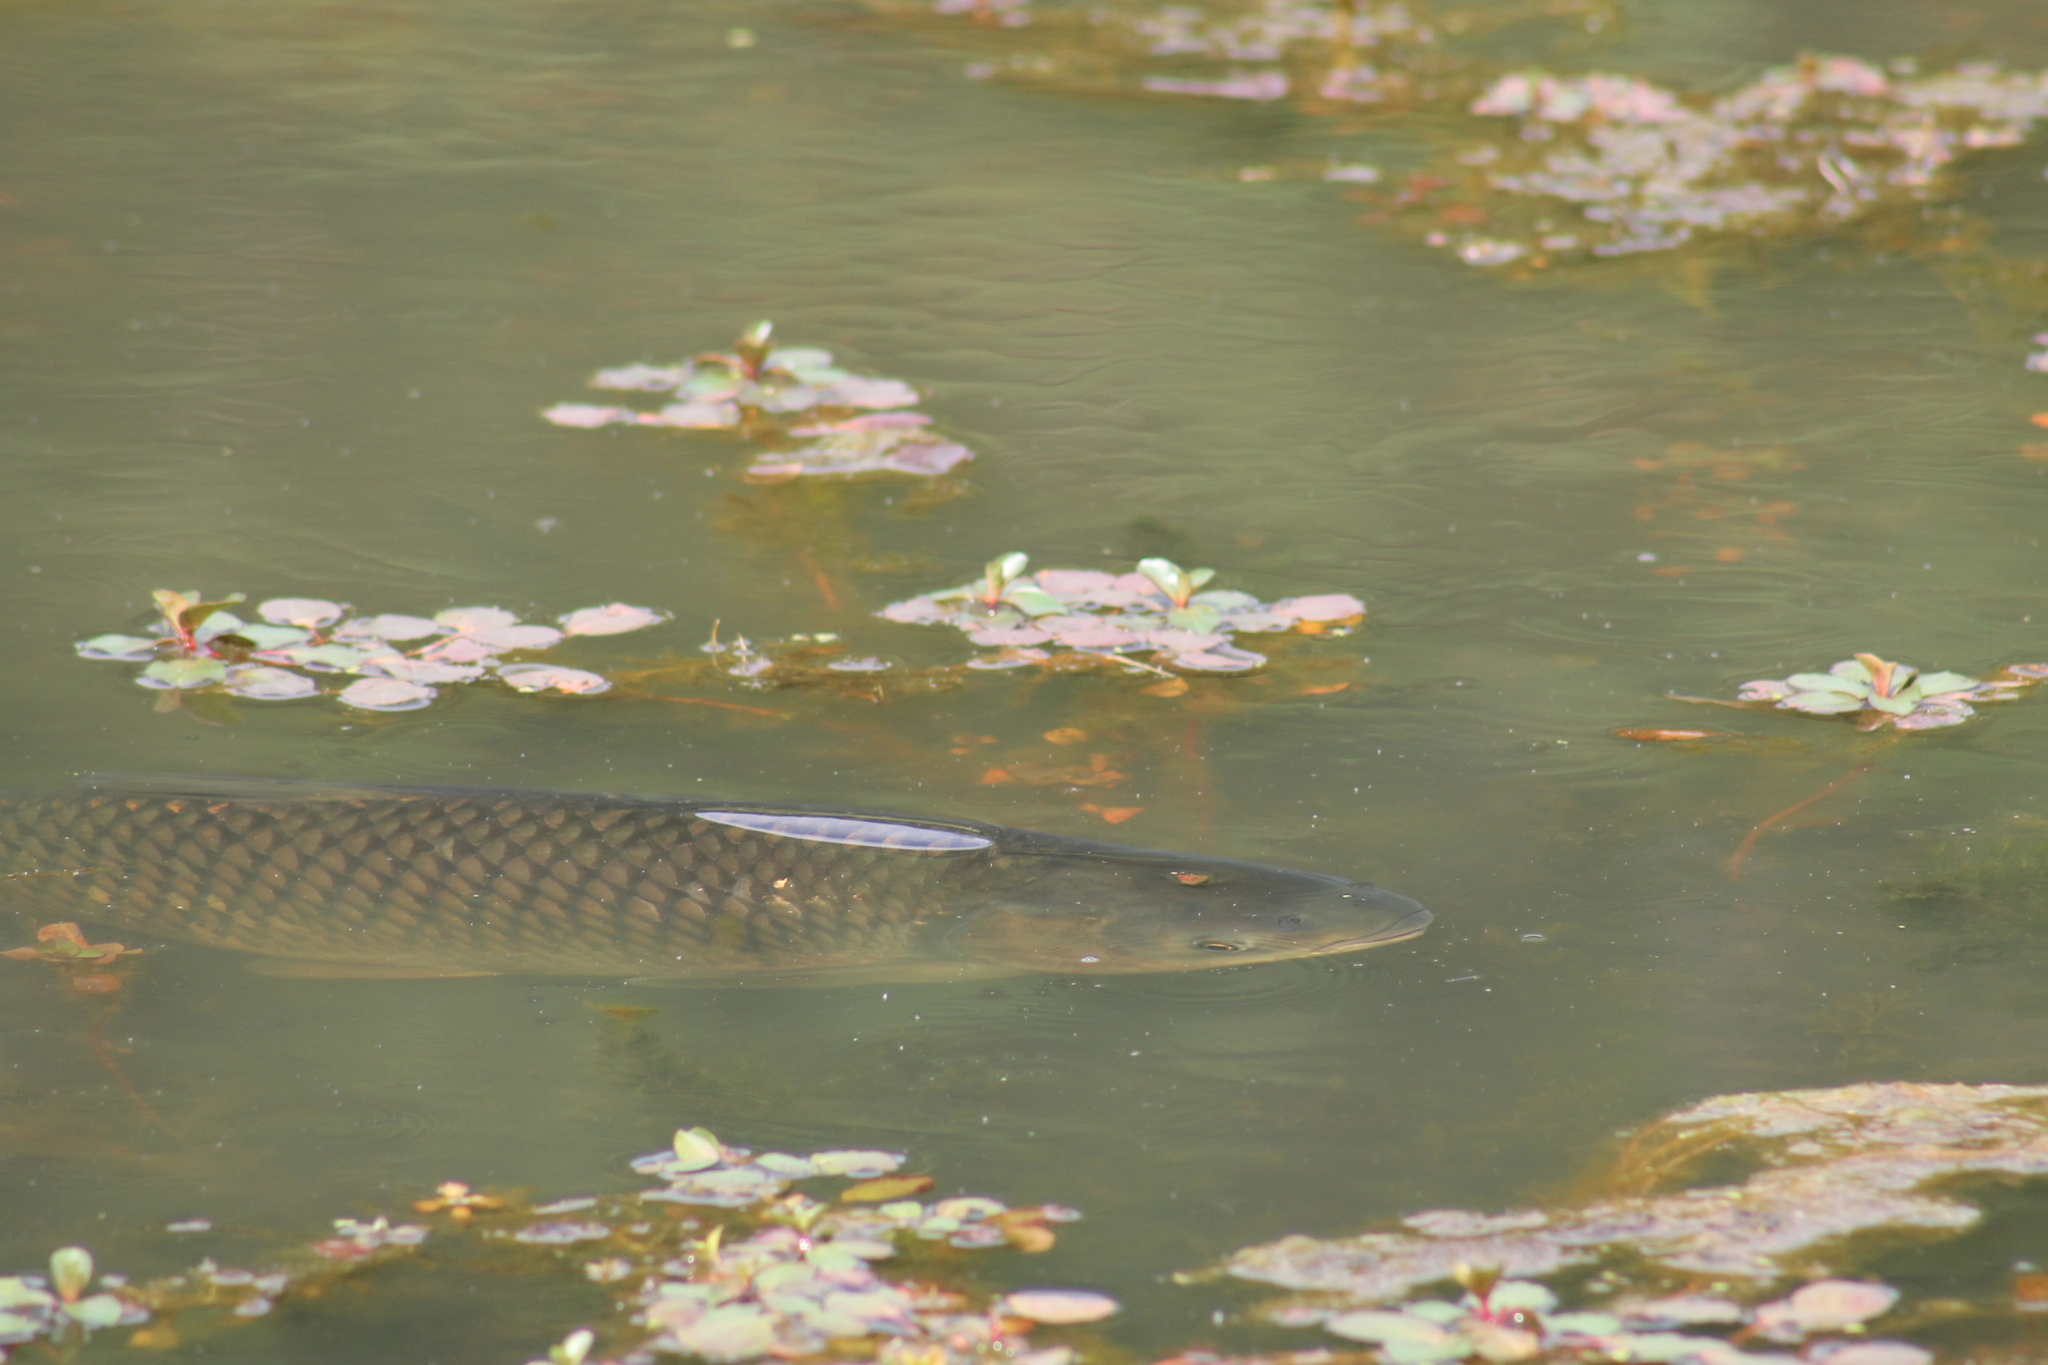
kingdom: Animalia
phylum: Chordata
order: Cypriniformes
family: Cyprinidae
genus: Ctenopharyngodon
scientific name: Ctenopharyngodon idella
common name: Grass carp
